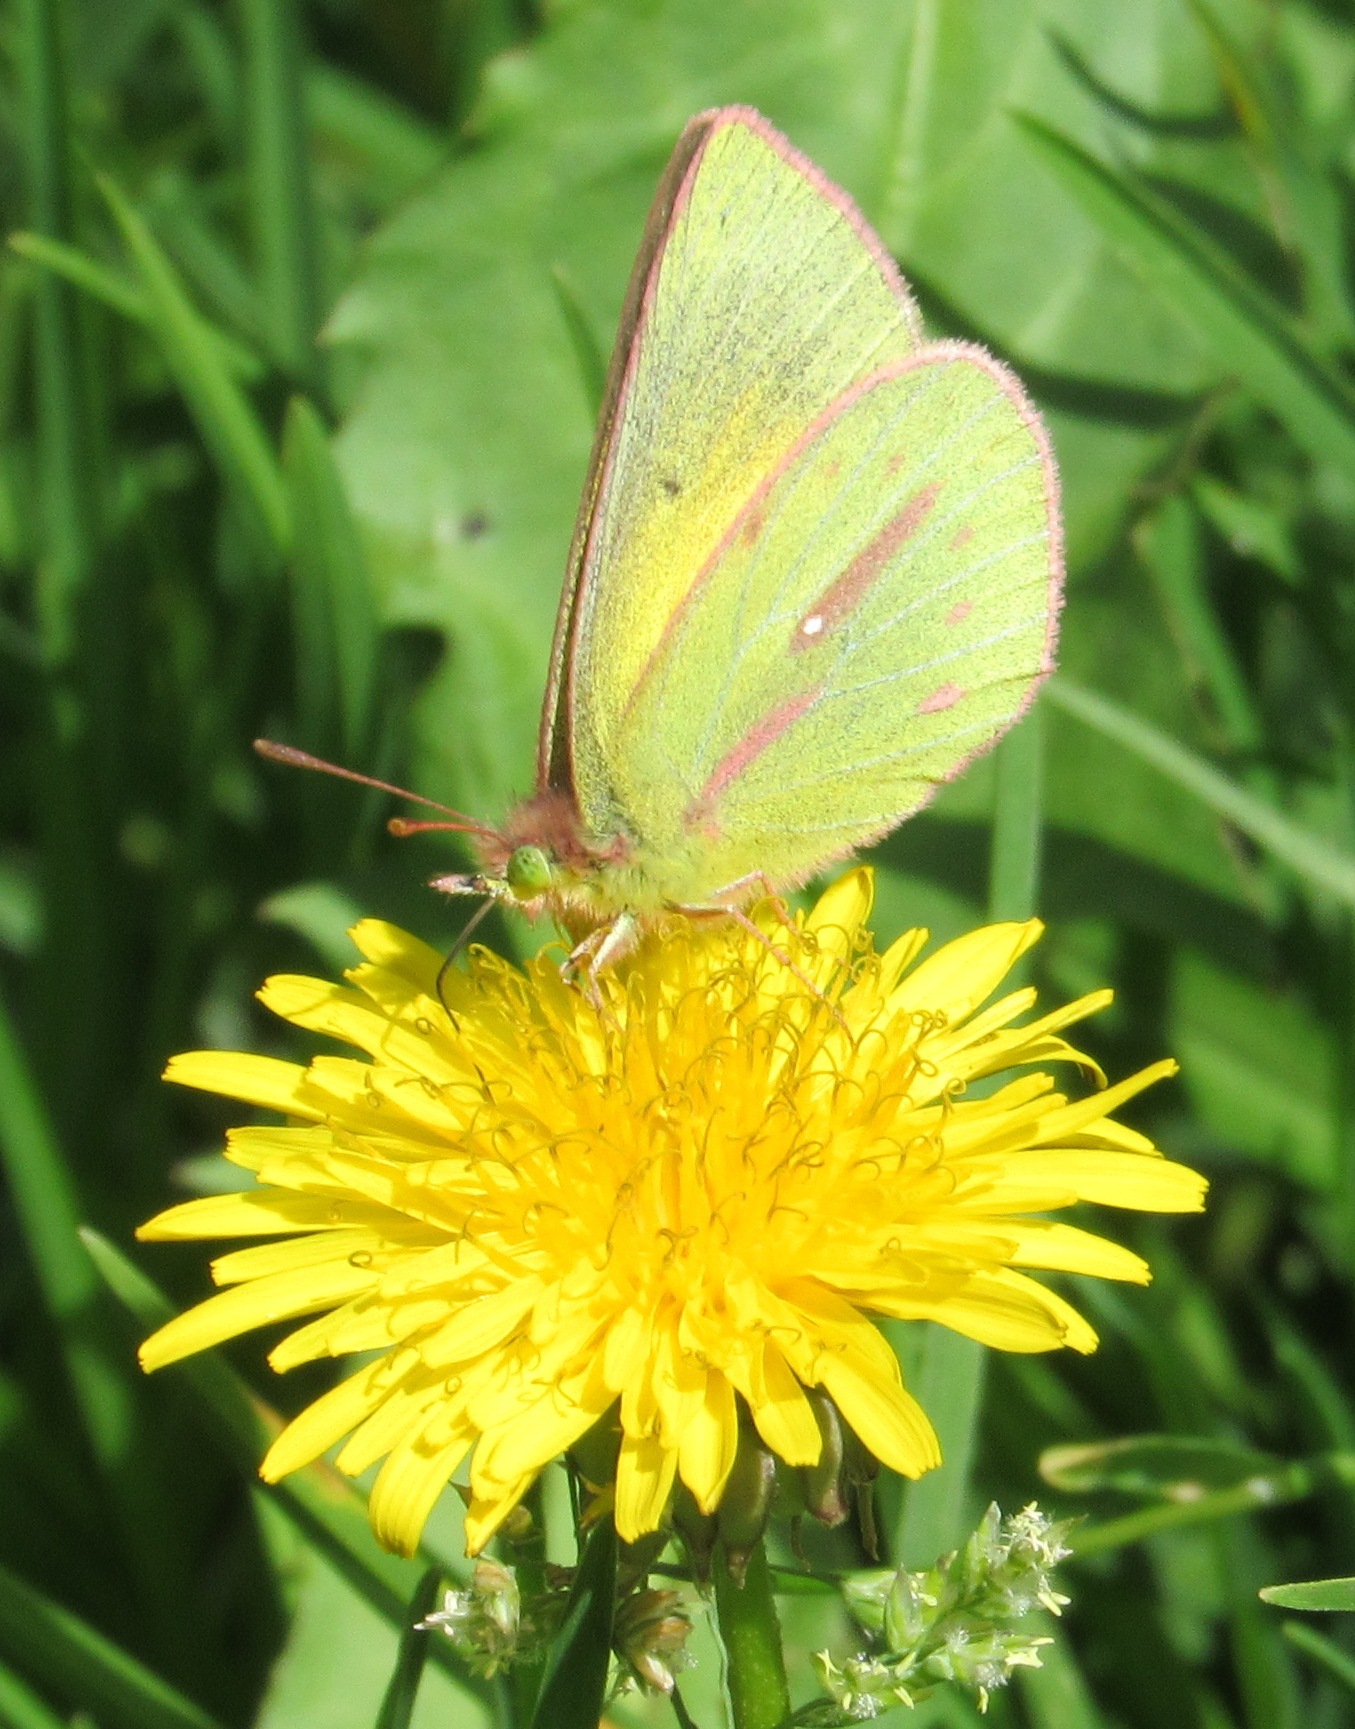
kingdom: Animalia
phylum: Arthropoda
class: Insecta
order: Lepidoptera
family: Pieridae
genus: Colias
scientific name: Colias dimera
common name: Dimera sulphur
